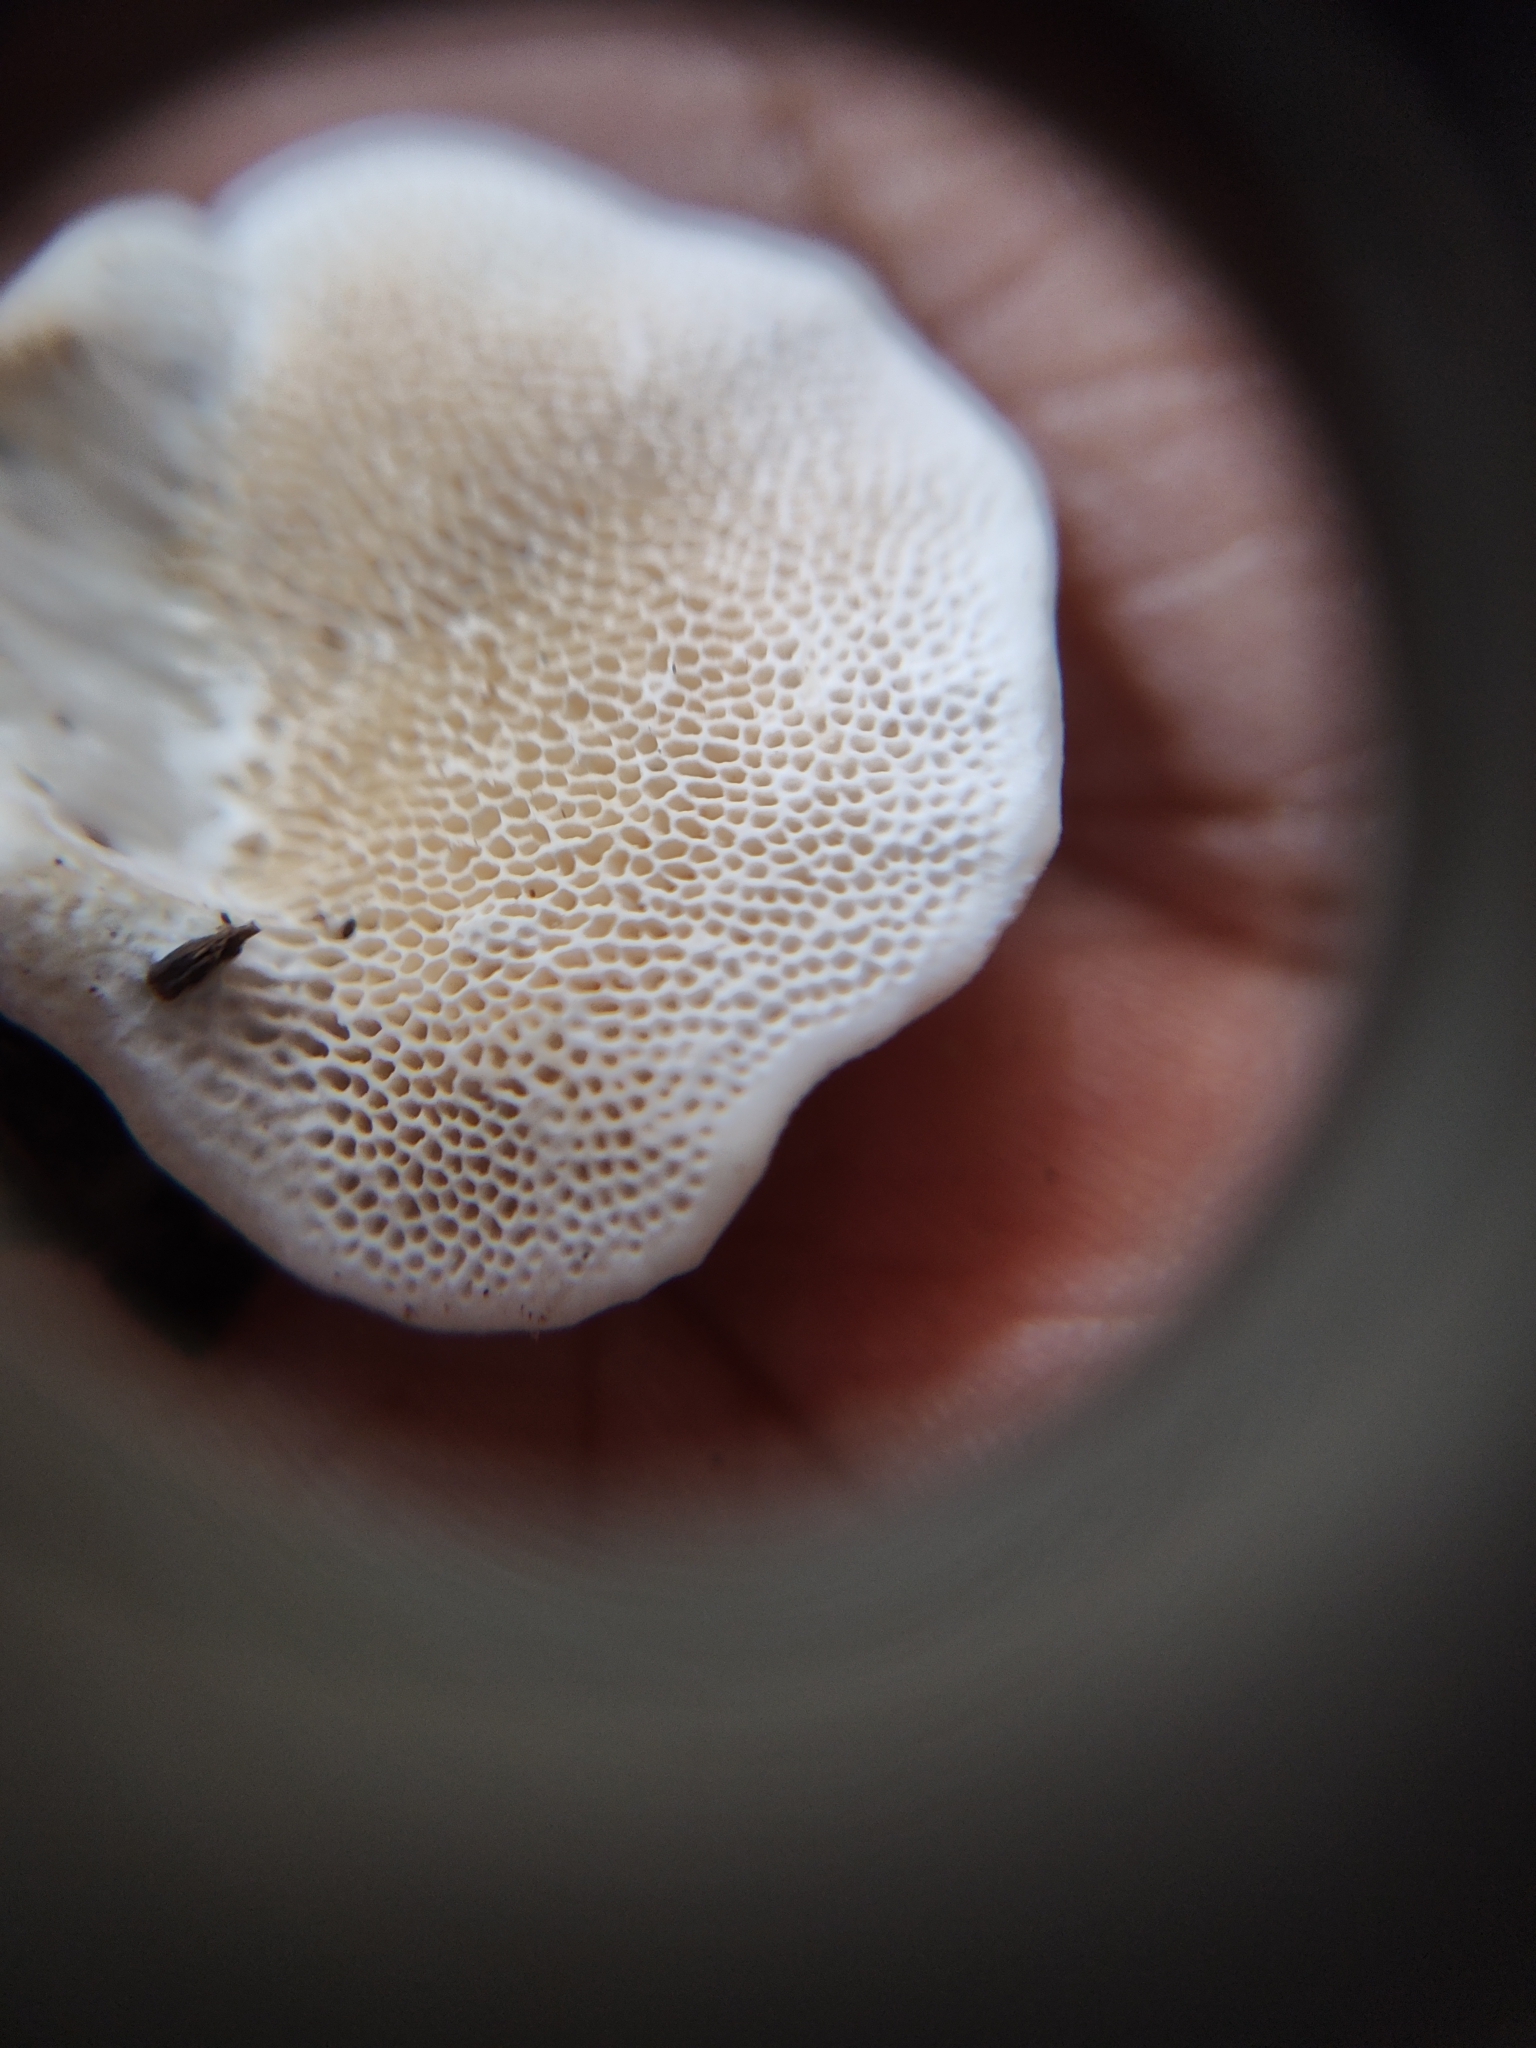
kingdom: Fungi
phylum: Basidiomycota
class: Agaricomycetes
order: Polyporales
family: Polyporaceae
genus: Pseudofavolus
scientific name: Pseudofavolus tenuis
